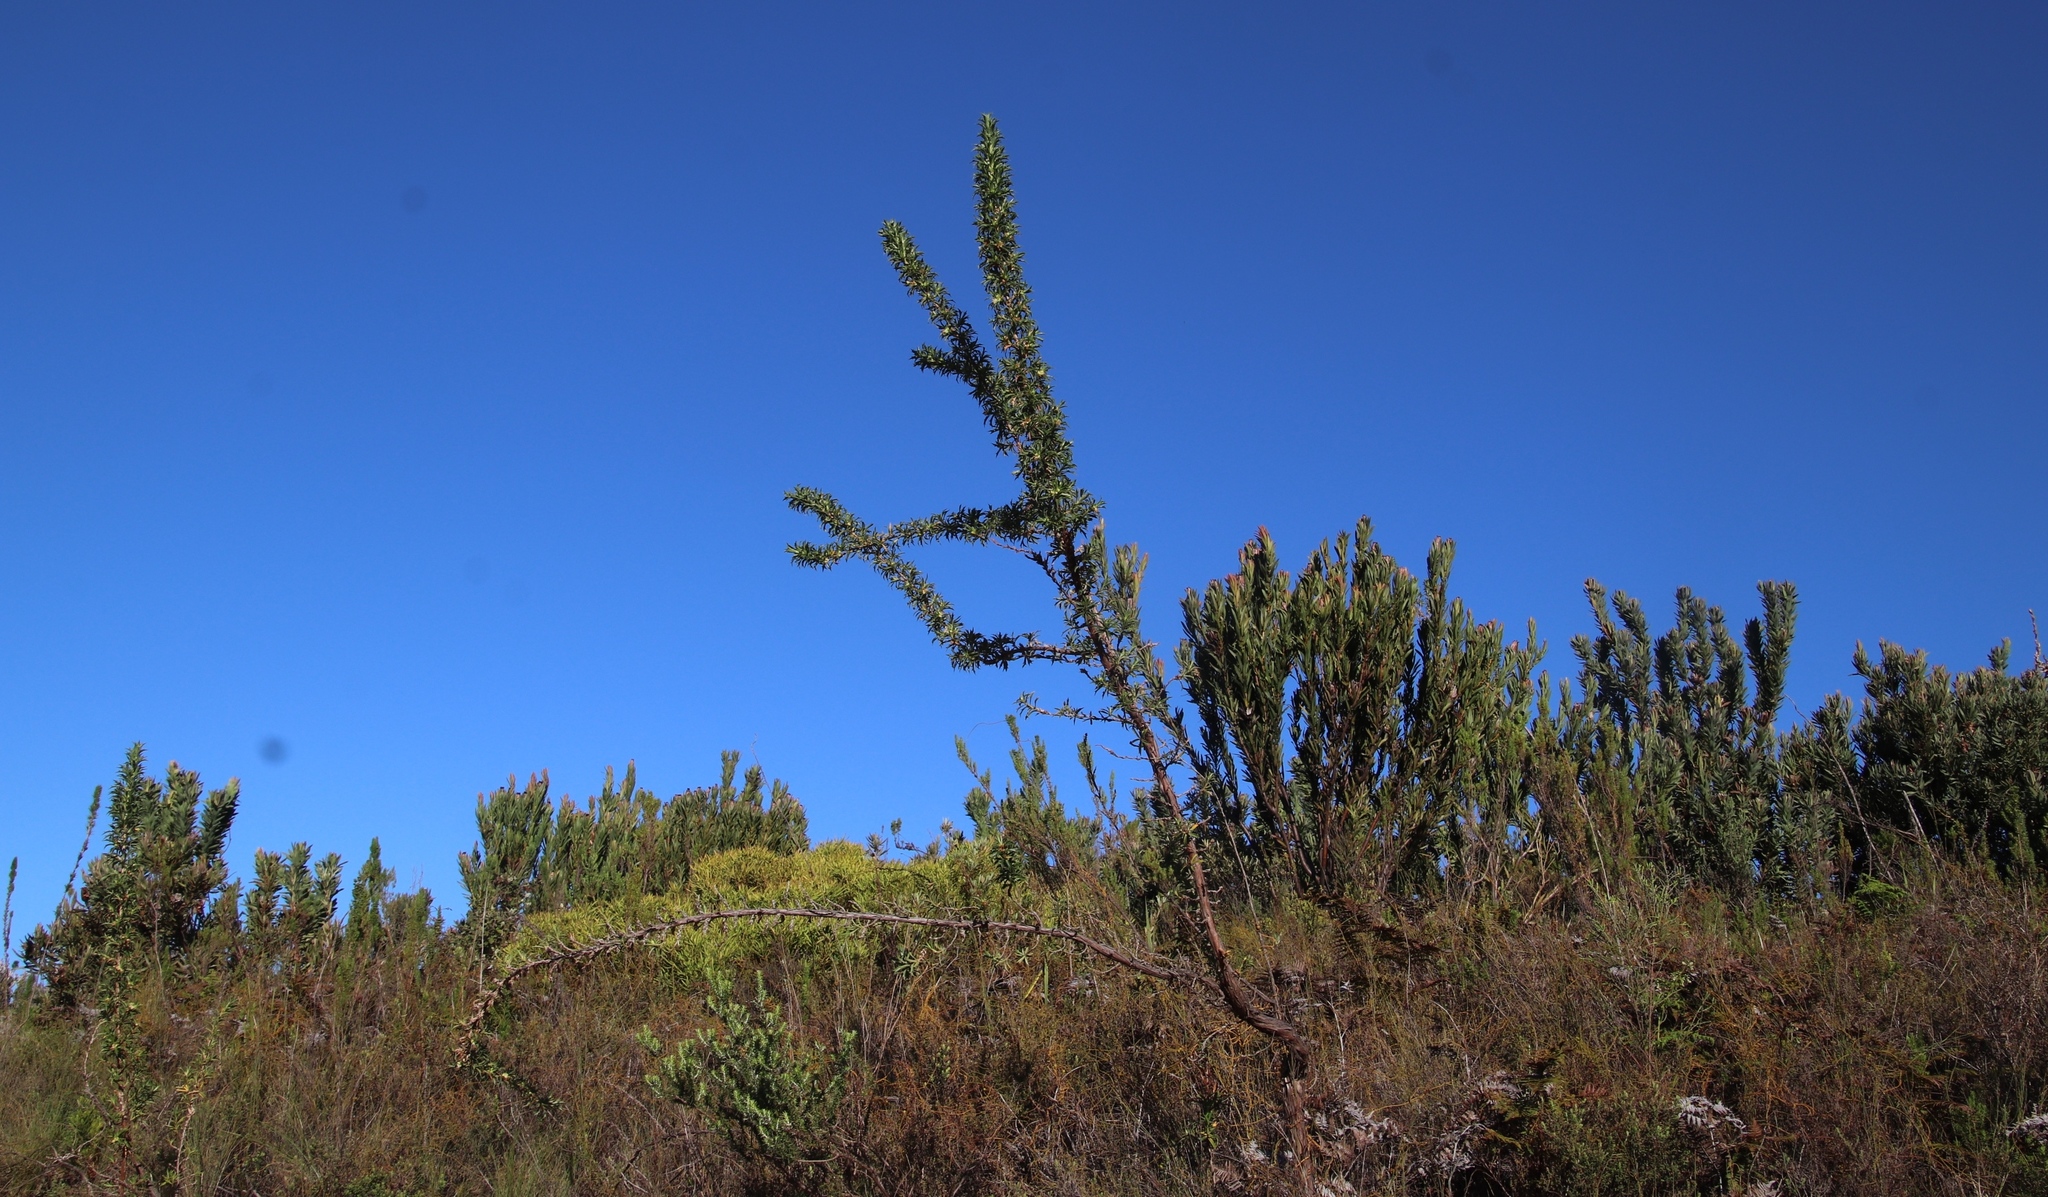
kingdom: Plantae
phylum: Tracheophyta
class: Magnoliopsida
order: Rosales
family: Rosaceae
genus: Cliffortia
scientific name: Cliffortia phillipsii
